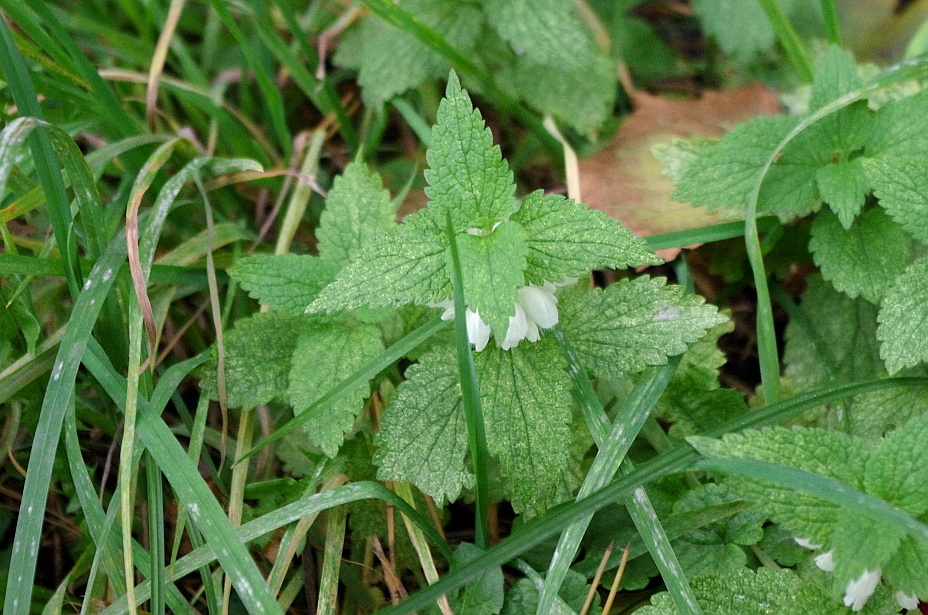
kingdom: Plantae
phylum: Tracheophyta
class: Magnoliopsida
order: Lamiales
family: Lamiaceae
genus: Lamium
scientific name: Lamium album
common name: White dead-nettle
